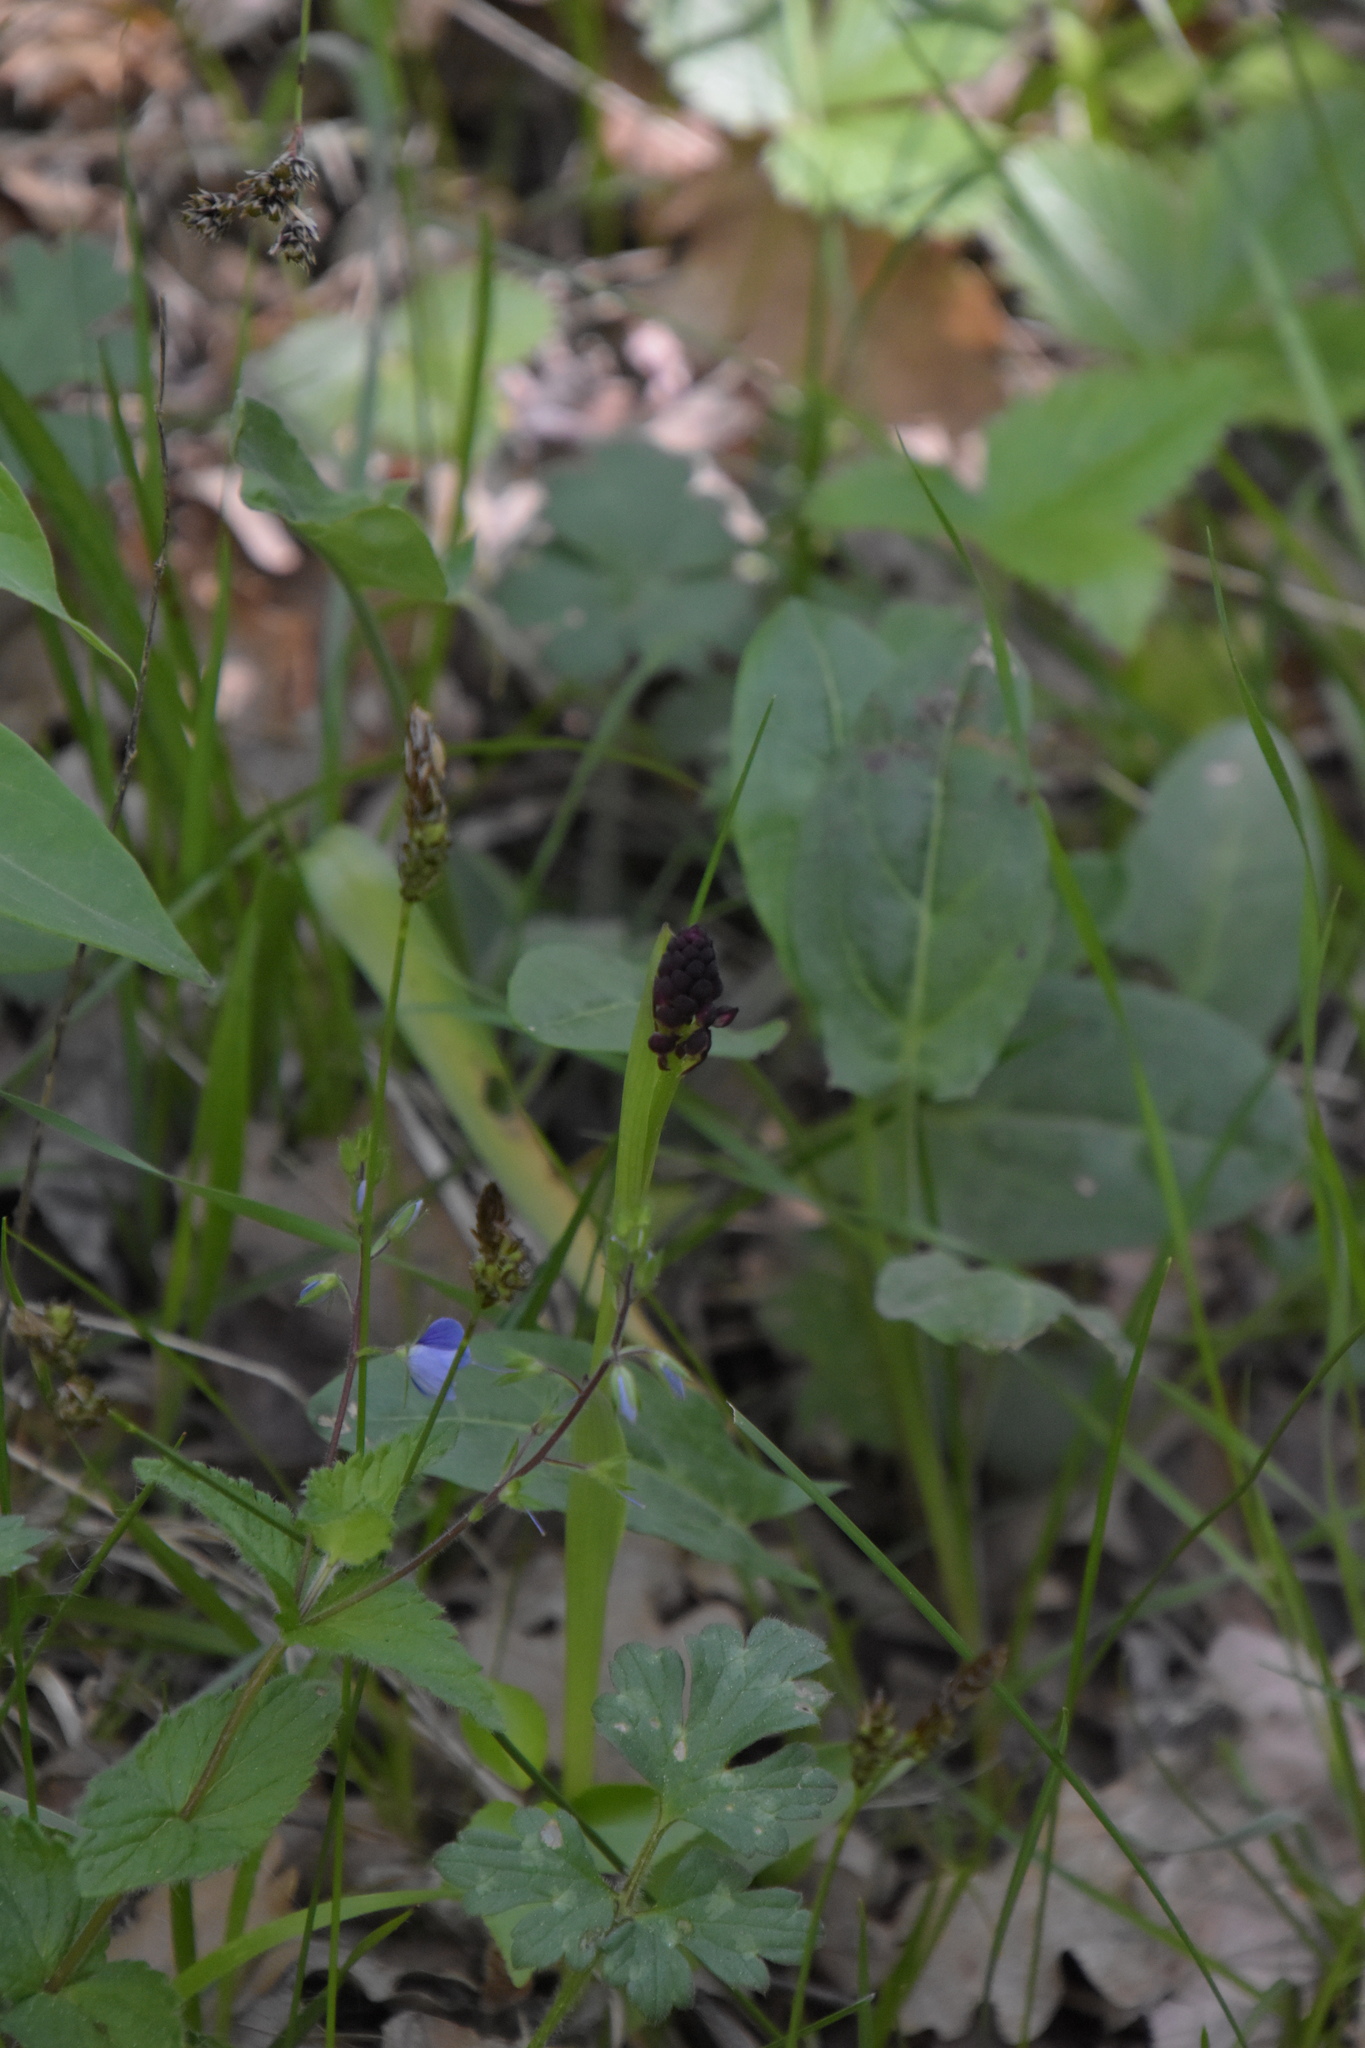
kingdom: Plantae
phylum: Tracheophyta
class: Liliopsida
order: Asparagales
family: Orchidaceae
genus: Neotinea
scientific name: Neotinea ustulata
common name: Burnt orchid
